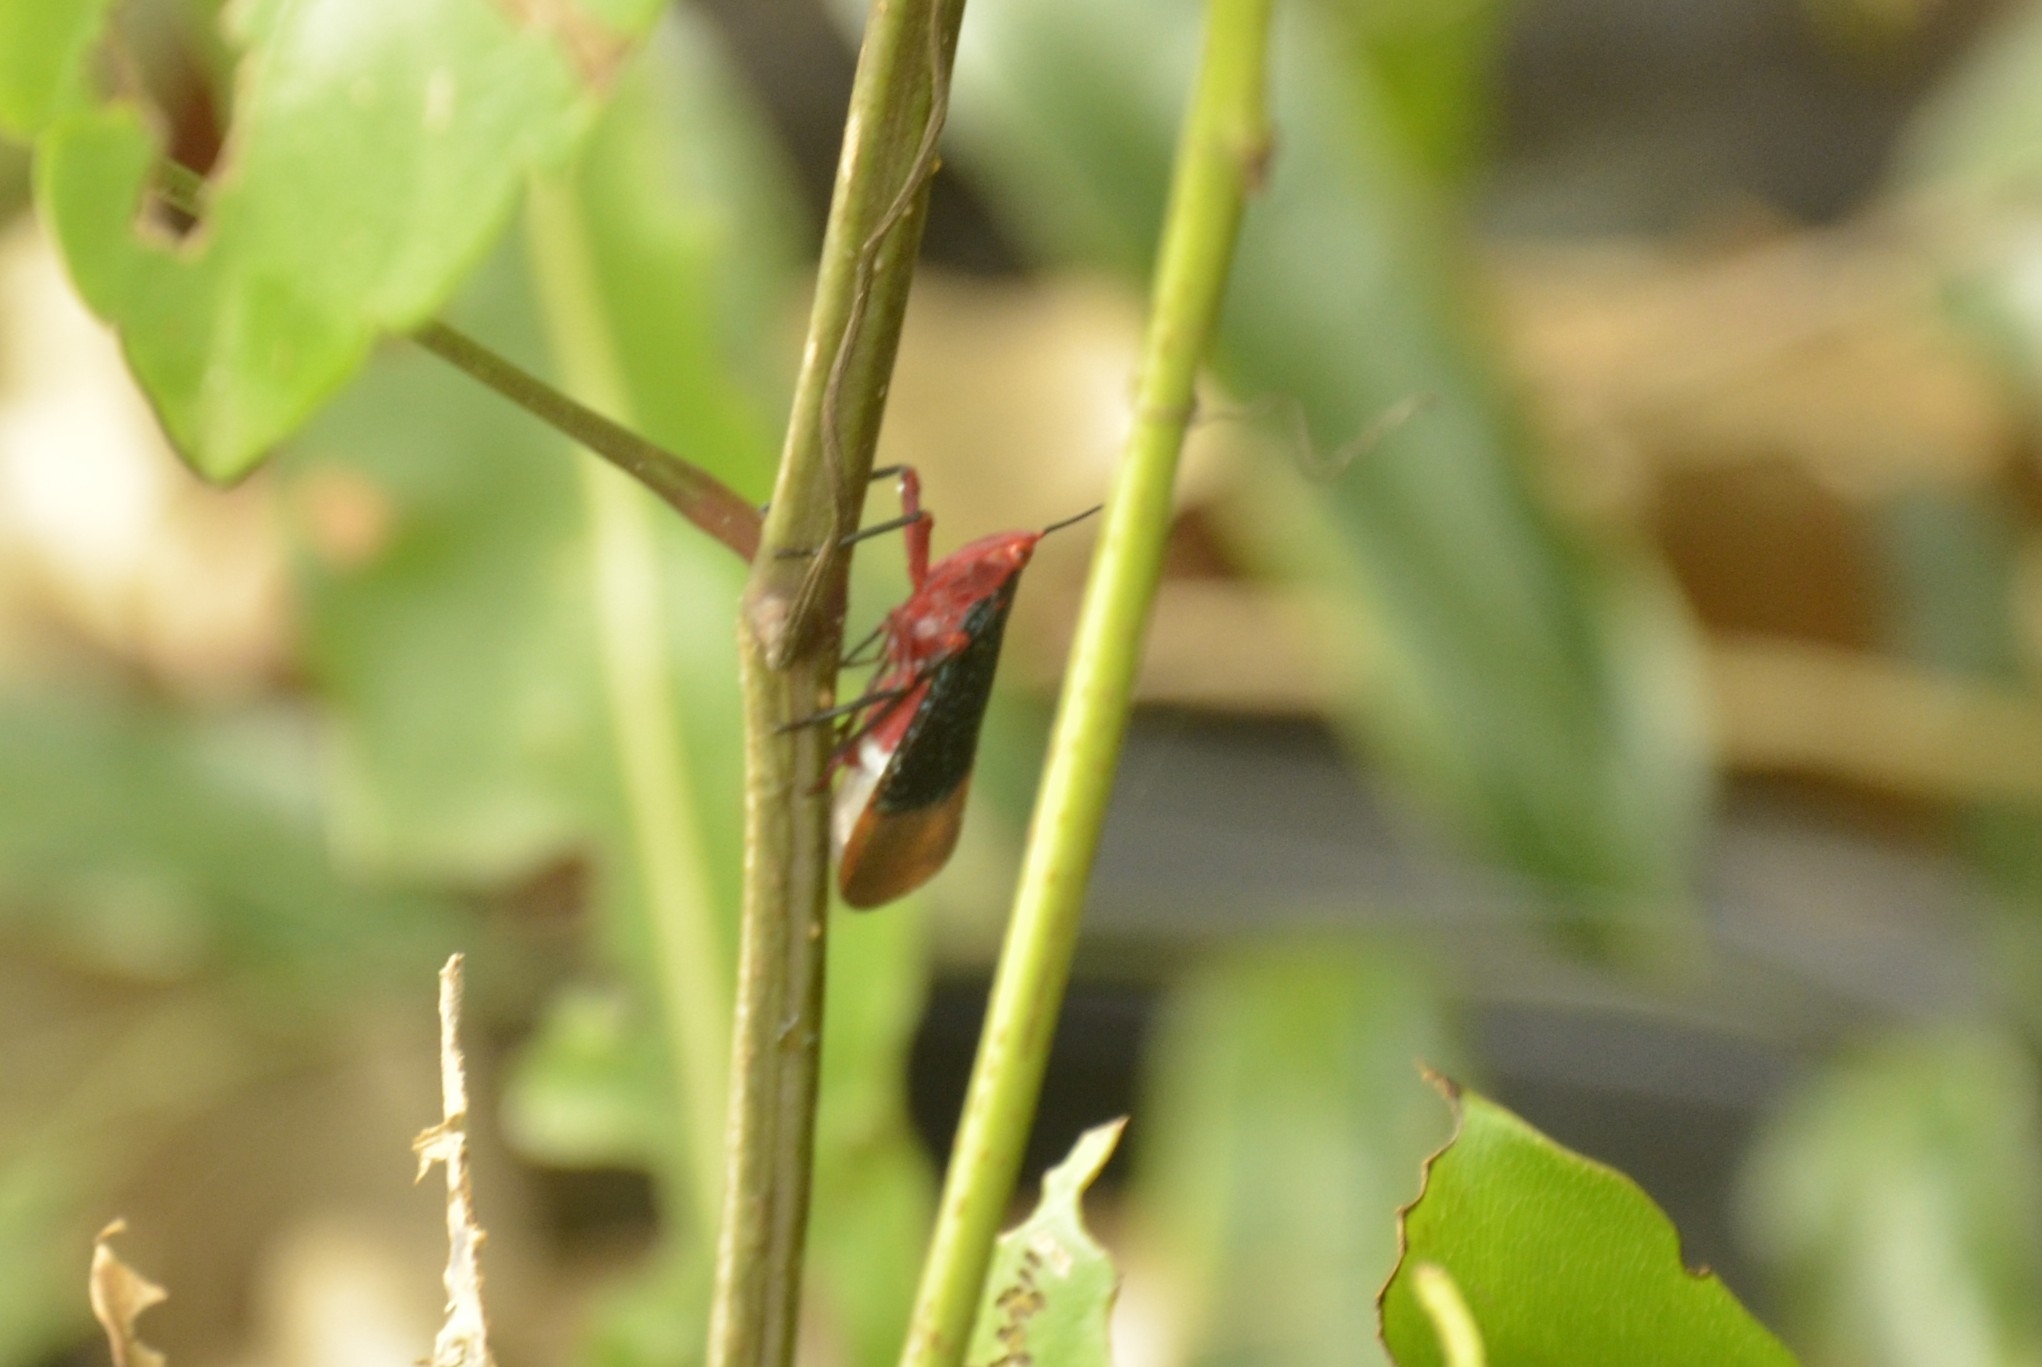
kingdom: Animalia
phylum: Arthropoda
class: Insecta
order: Hemiptera
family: Fulgoridae
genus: Kalidasa
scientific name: Kalidasa lanata
